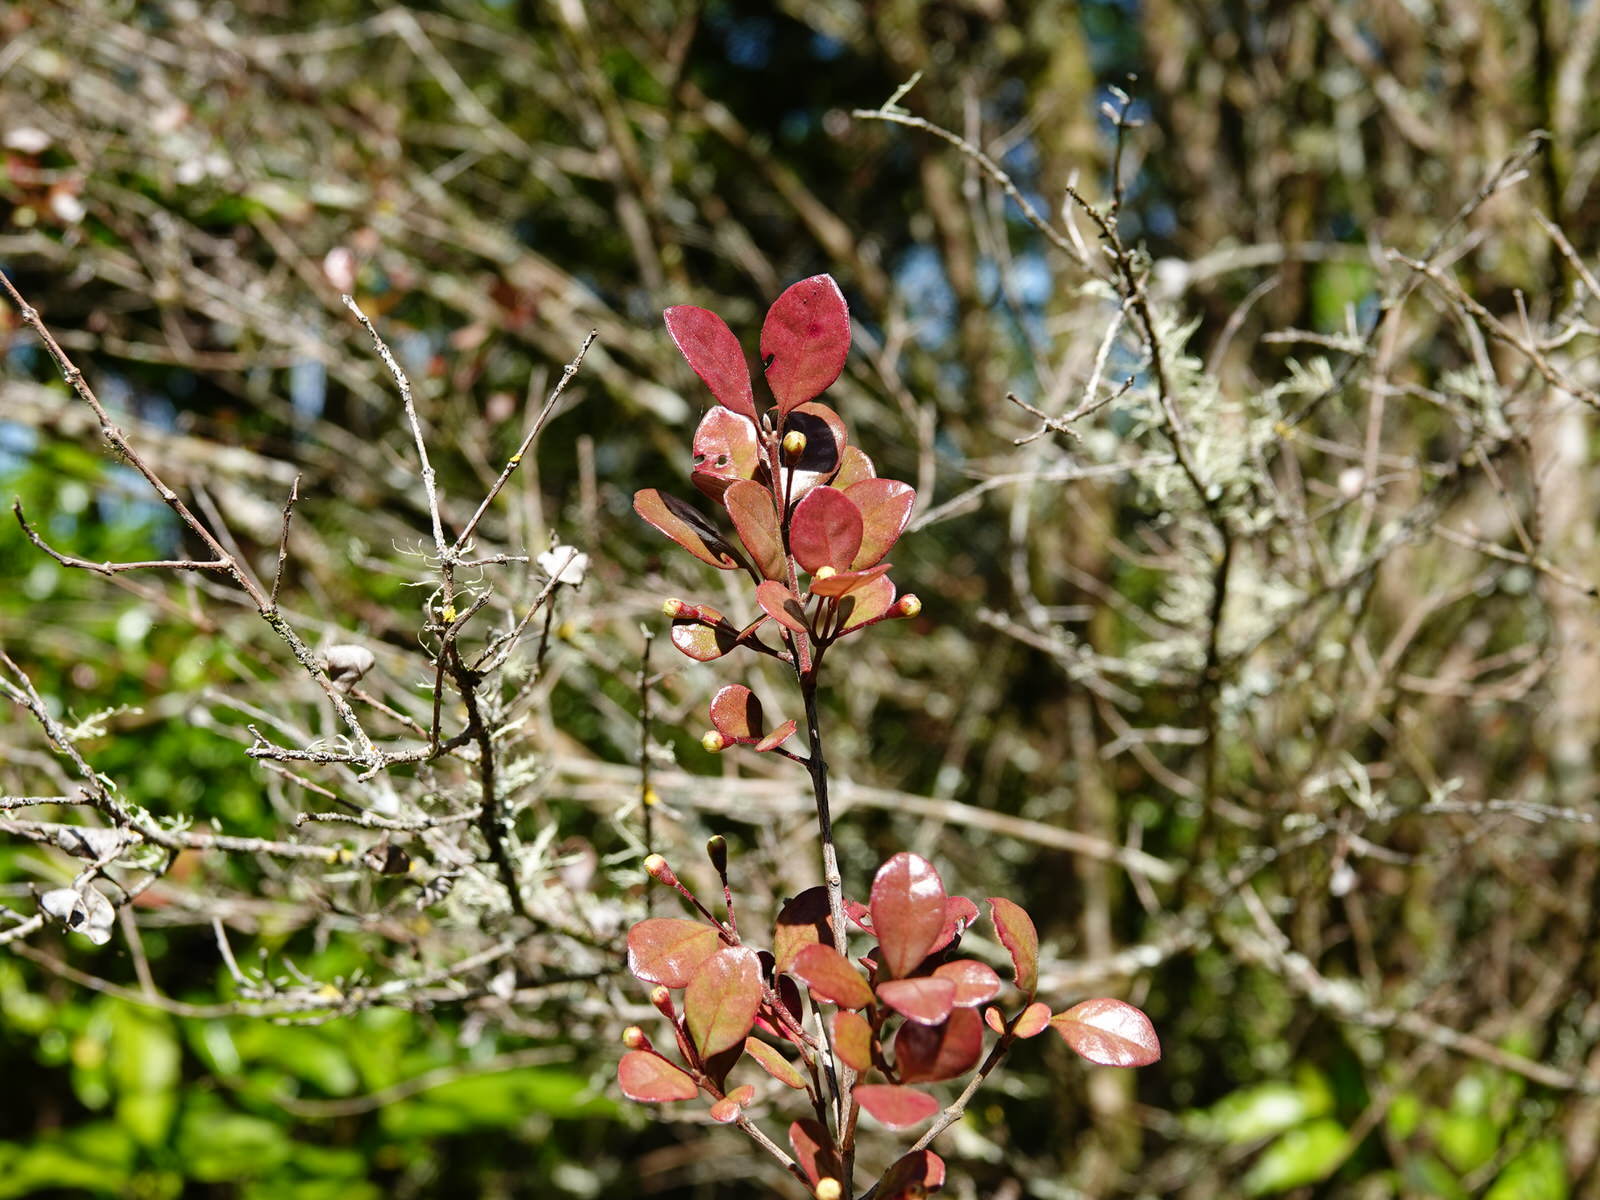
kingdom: Fungi
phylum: Basidiomycota
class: Pucciniomycetes
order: Pucciniales
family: Sphaerophragmiaceae
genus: Austropuccinia
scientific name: Austropuccinia psidii
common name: Myrtle rust
